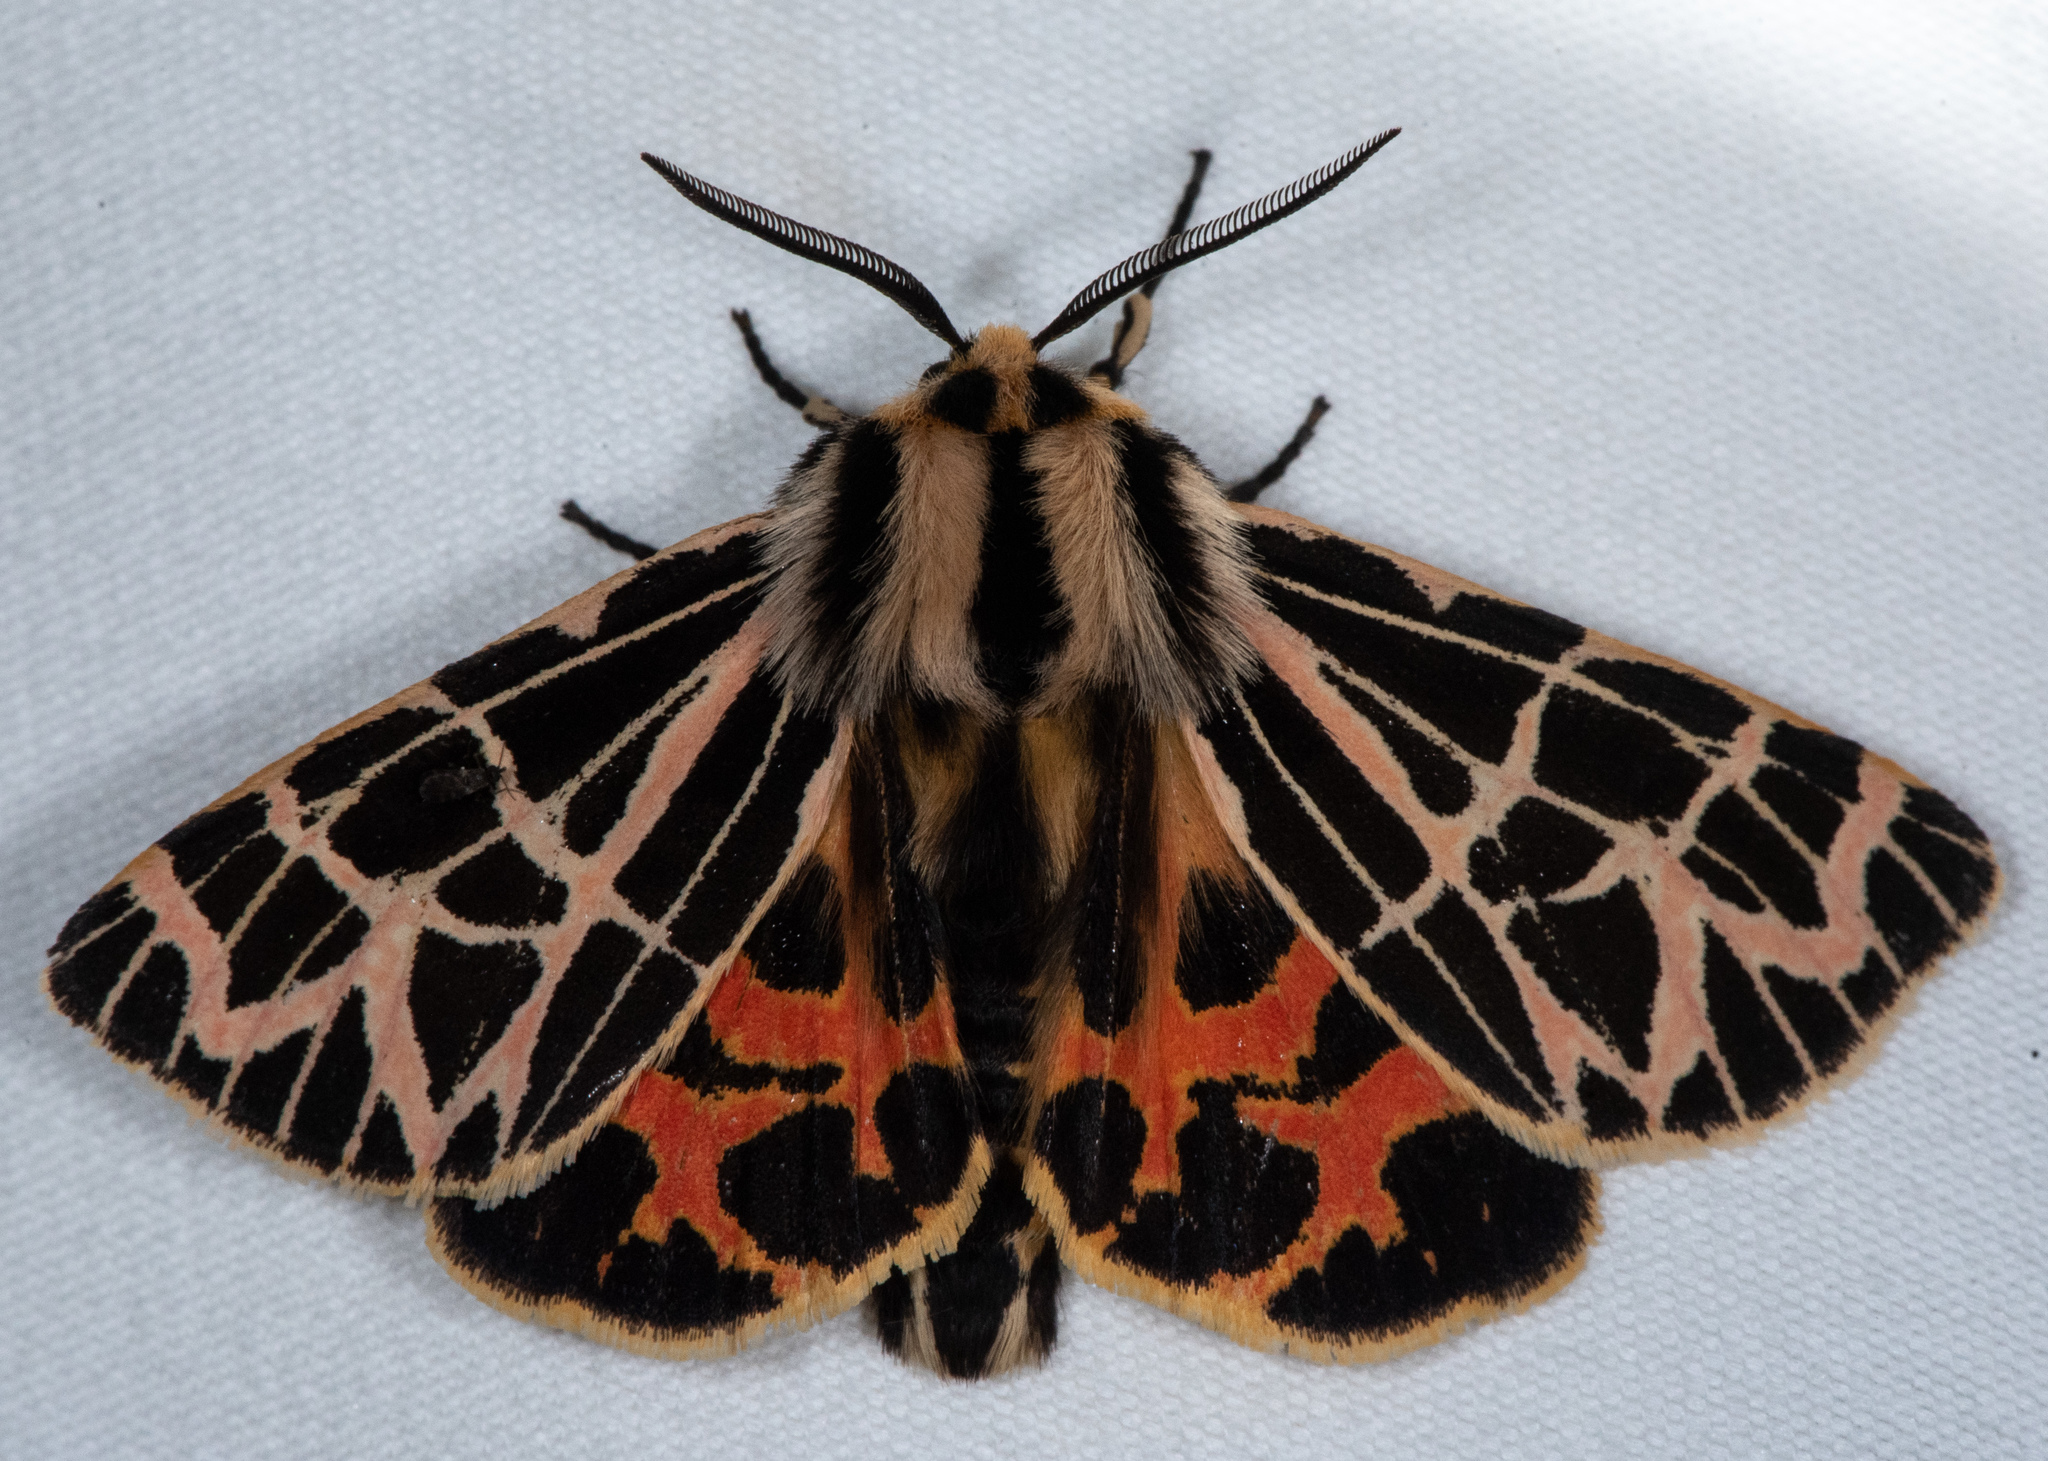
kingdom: Animalia
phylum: Arthropoda
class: Insecta
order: Lepidoptera
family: Erebidae
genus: Apantesis
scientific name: Apantesis
